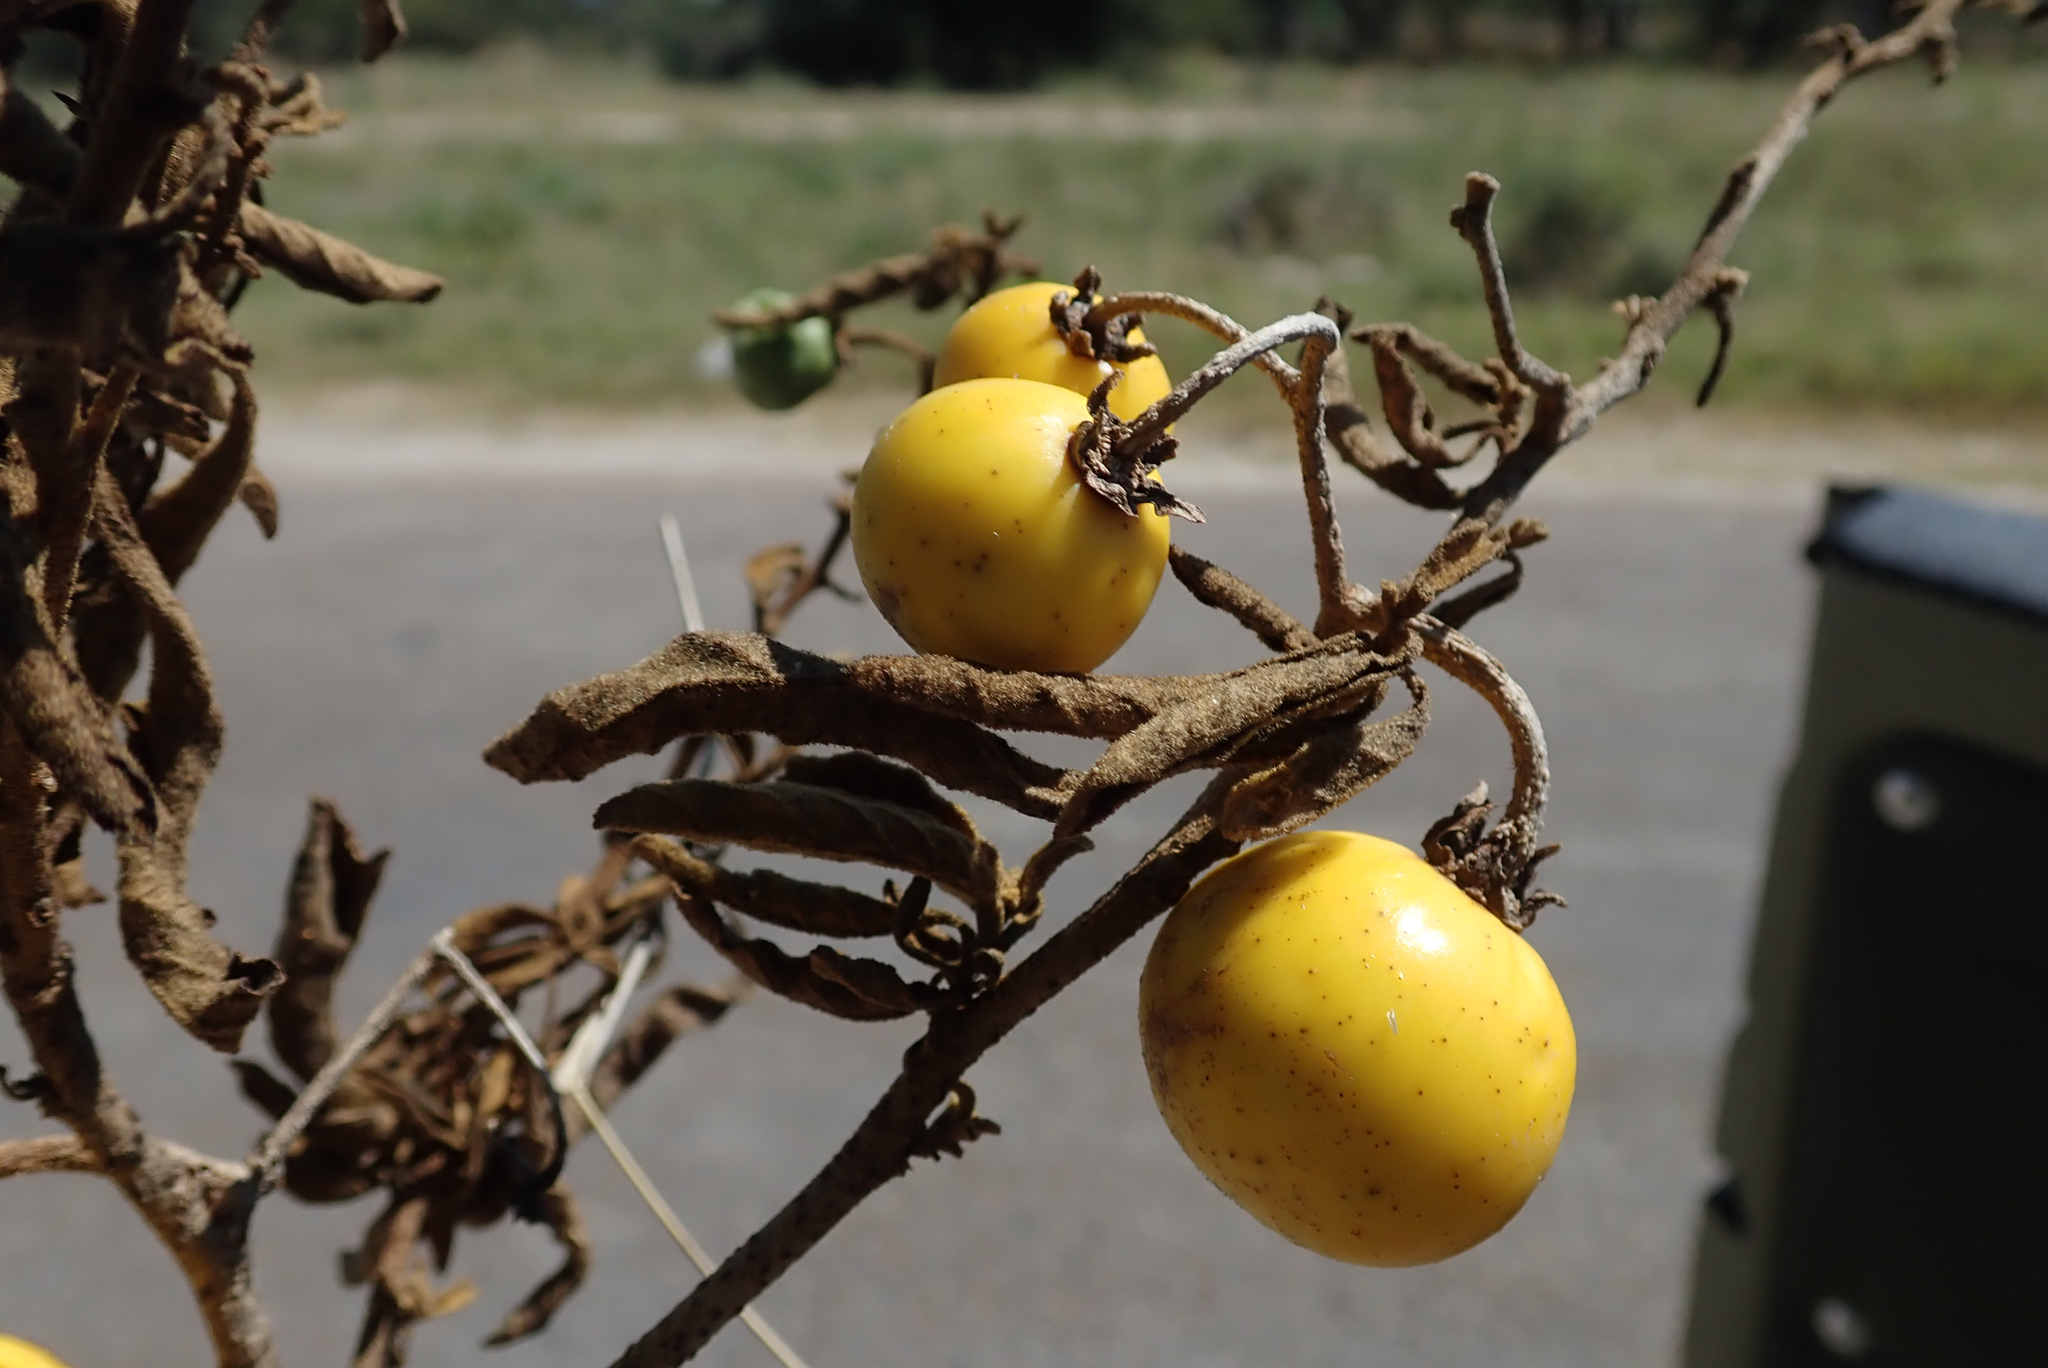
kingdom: Plantae
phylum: Tracheophyta
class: Magnoliopsida
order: Solanales
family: Solanaceae
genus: Solanum
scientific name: Solanum campylacanthum
